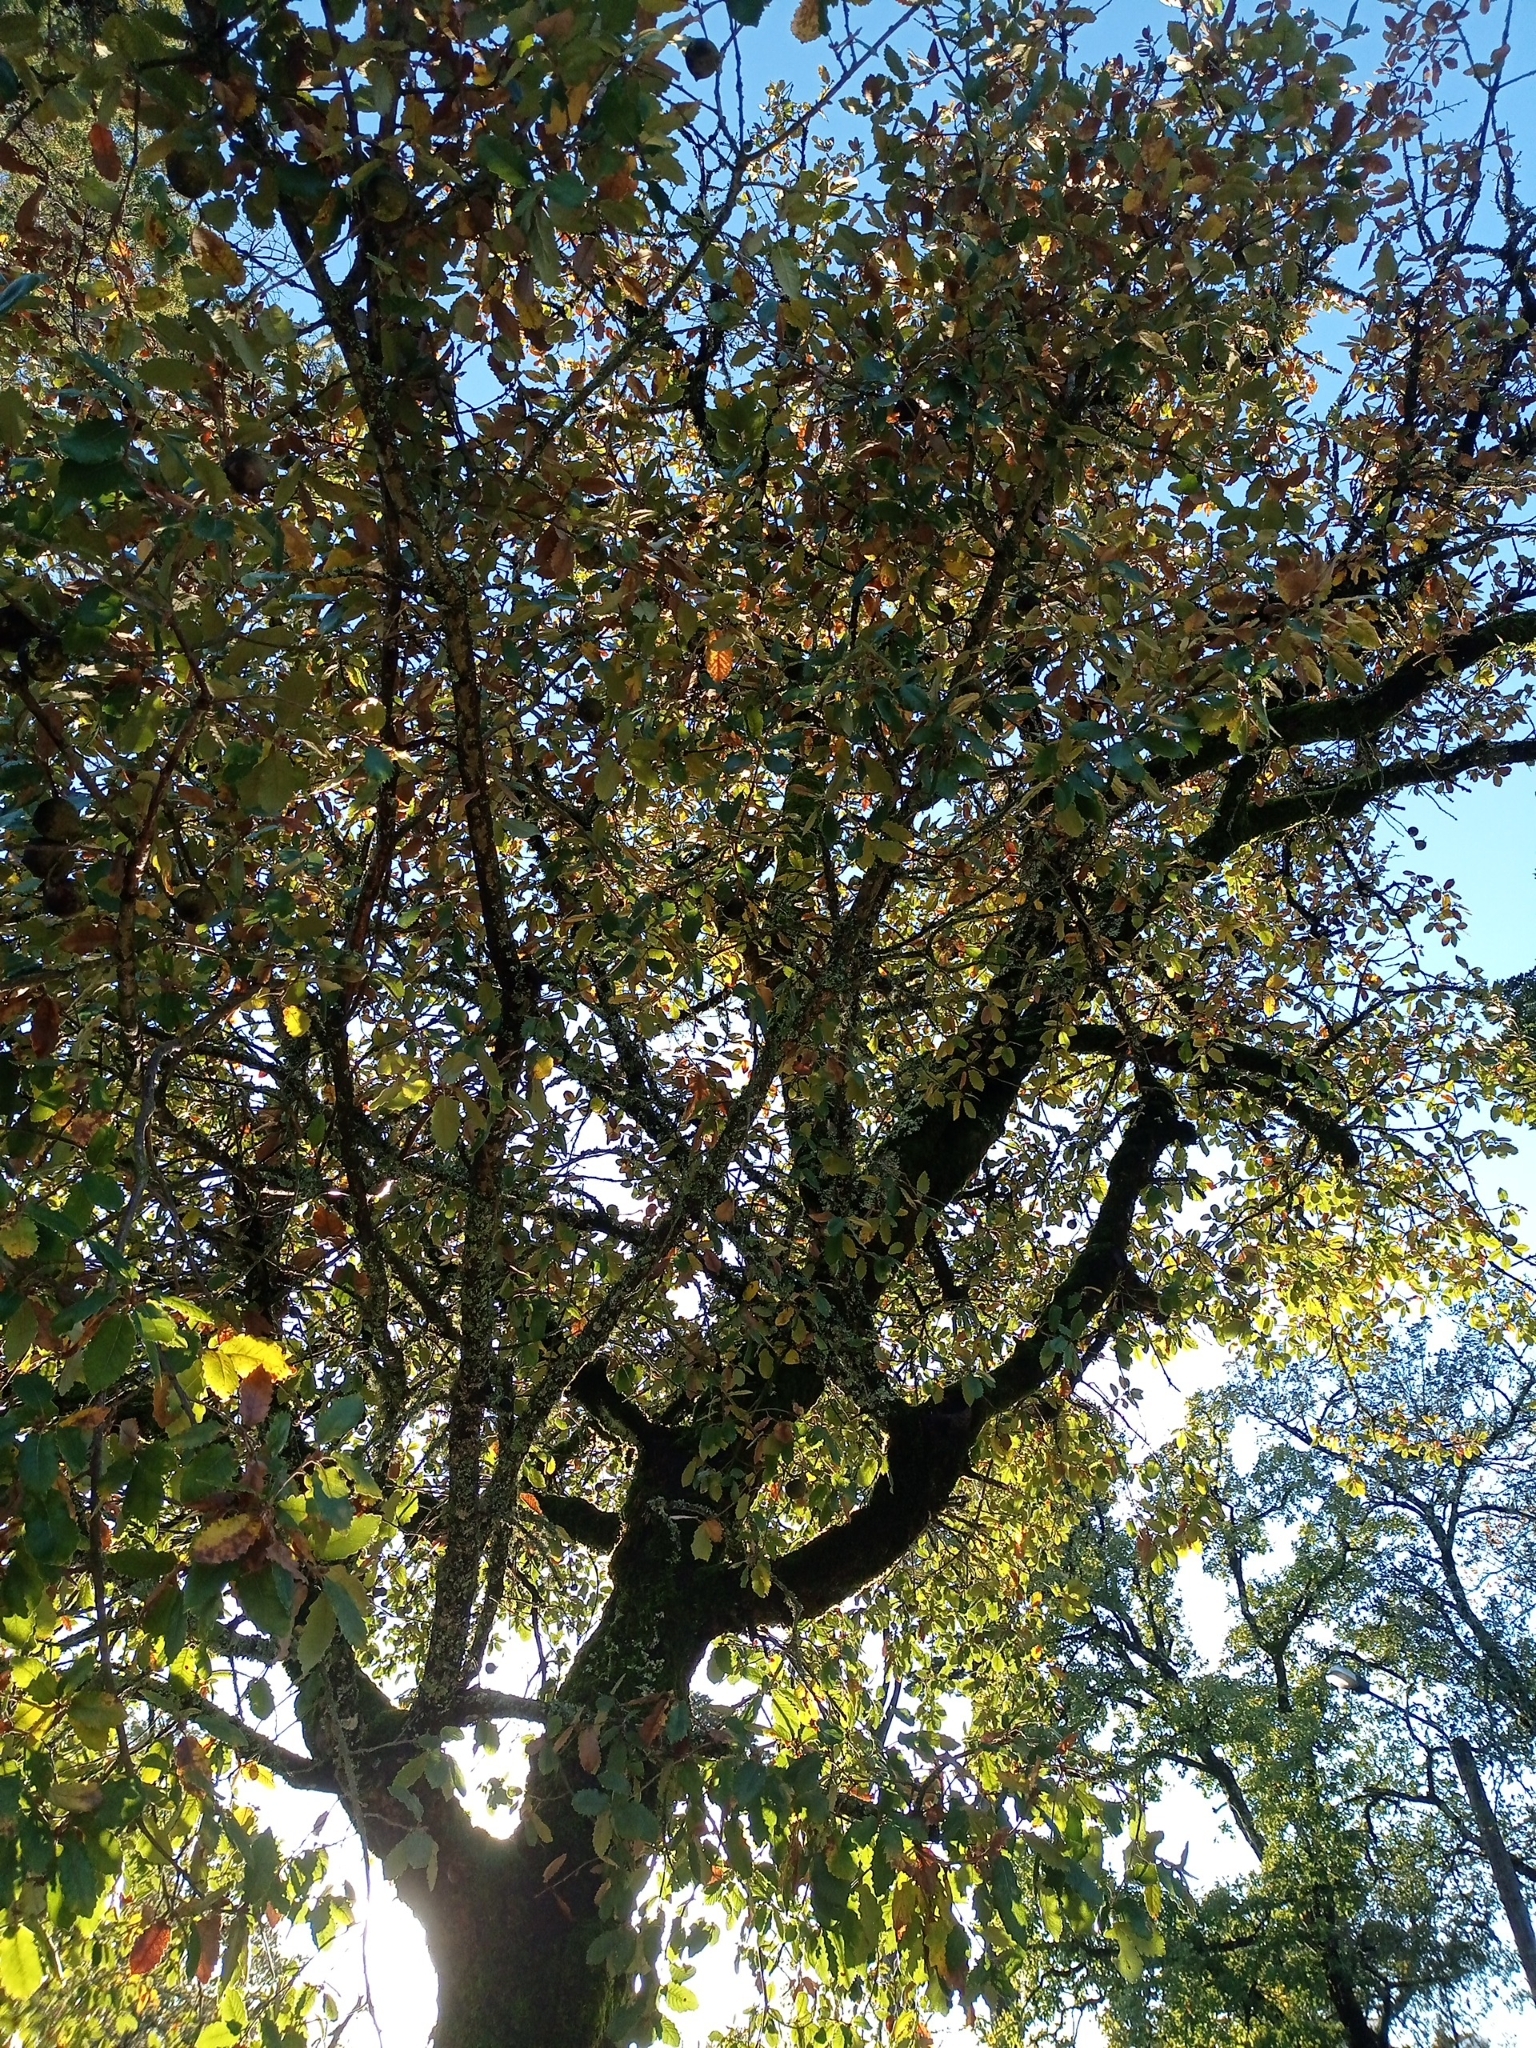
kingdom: Plantae
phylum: Tracheophyta
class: Magnoliopsida
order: Fagales
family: Fagaceae
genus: Quercus
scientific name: Quercus faginea
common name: Gall oak tree
